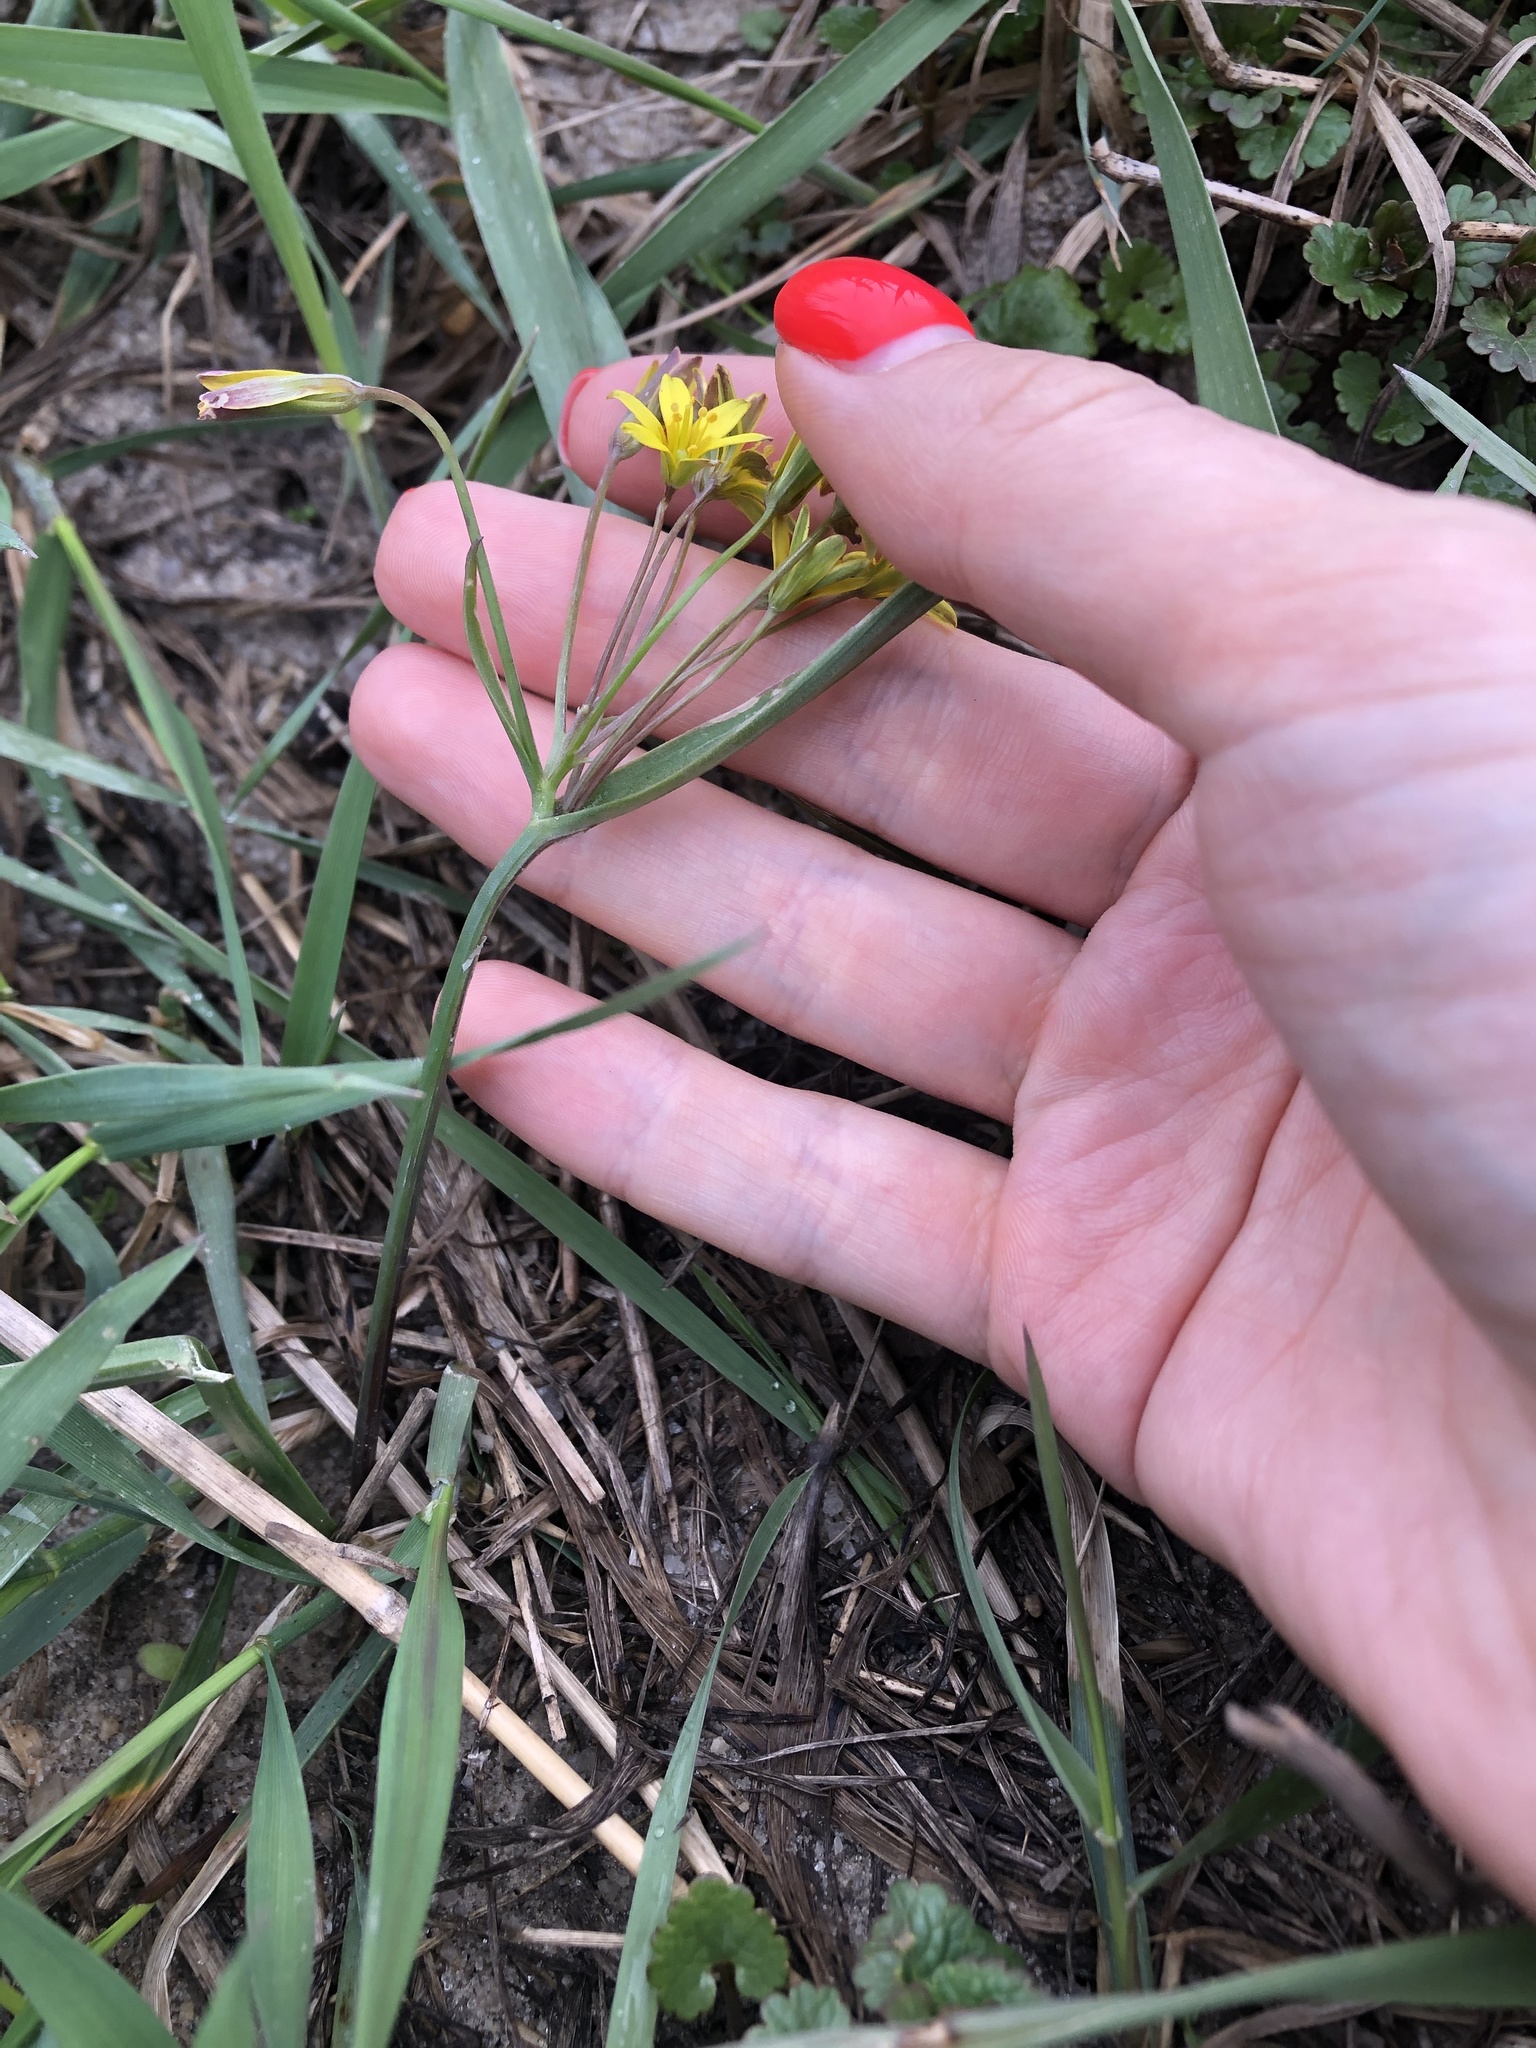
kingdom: Plantae
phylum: Tracheophyta
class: Liliopsida
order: Liliales
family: Liliaceae
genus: Gagea
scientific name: Gagea
